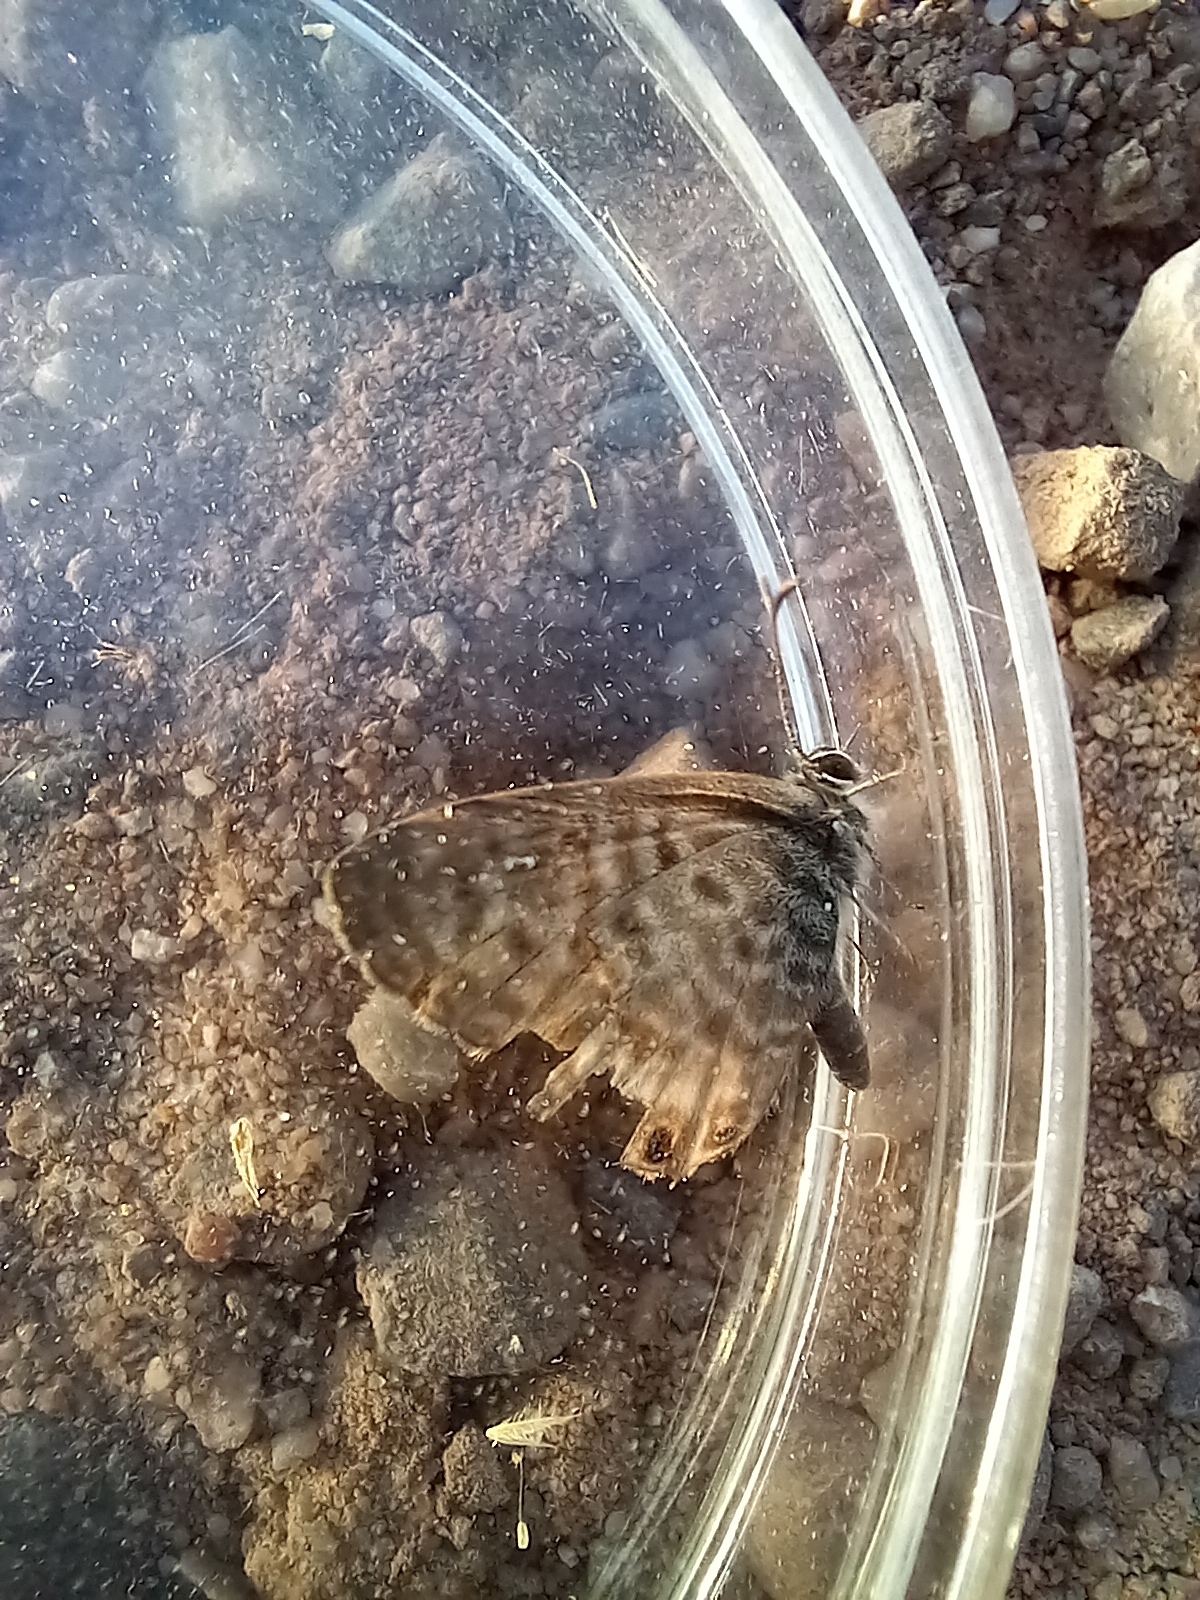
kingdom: Animalia
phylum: Arthropoda
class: Insecta
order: Lepidoptera
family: Lycaenidae
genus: Leptotes
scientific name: Leptotes pirithous
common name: Lang's short-tailed blue
